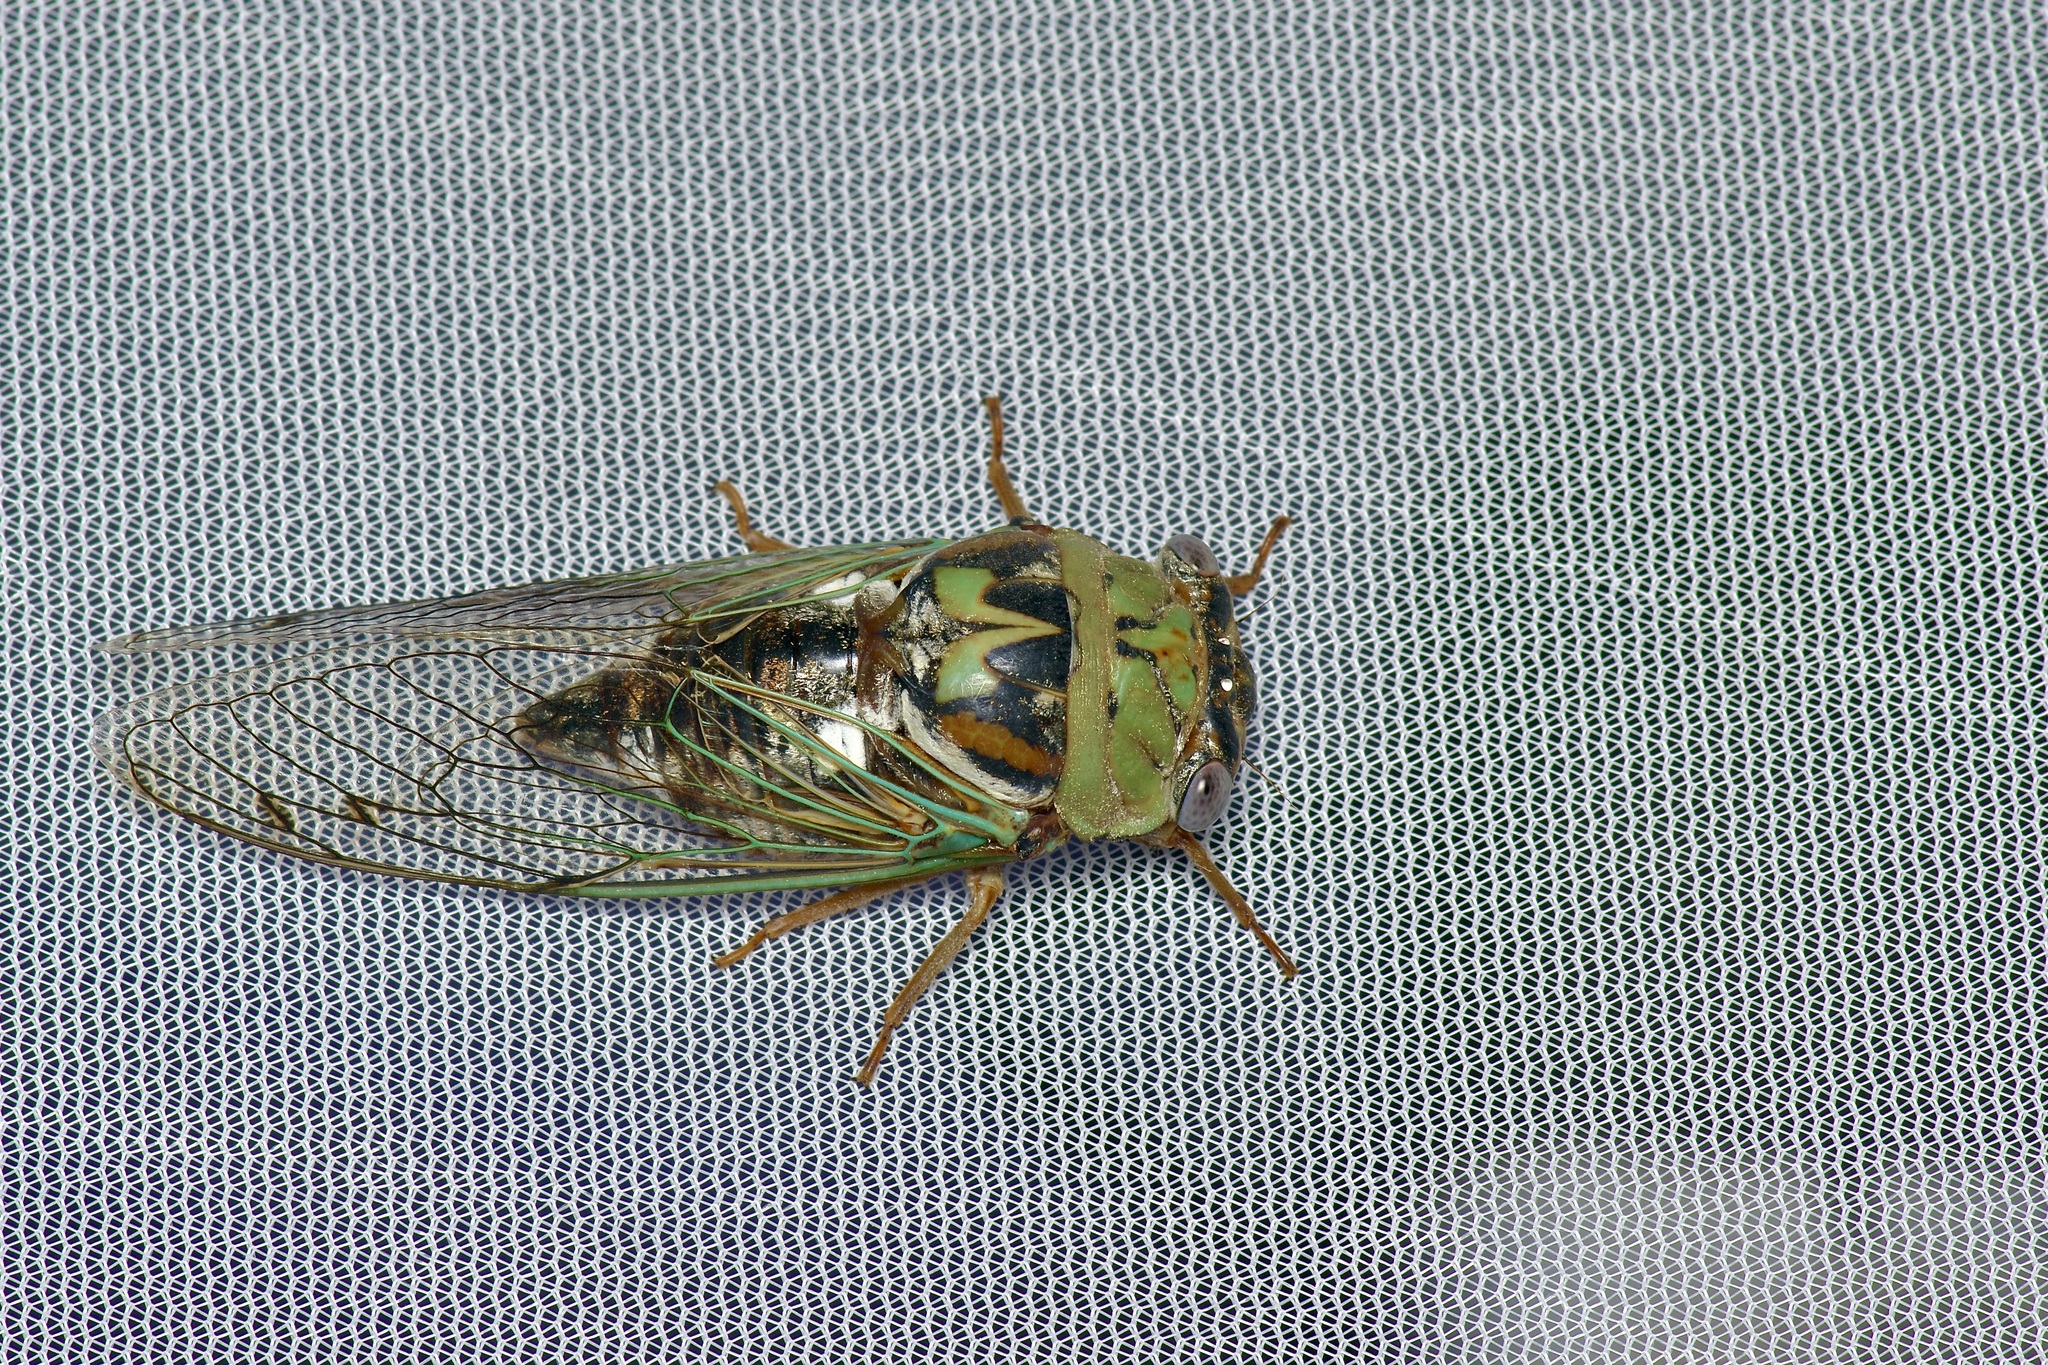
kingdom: Animalia
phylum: Arthropoda
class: Insecta
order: Hemiptera
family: Cicadidae
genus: Megatibicen
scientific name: Megatibicen resh
